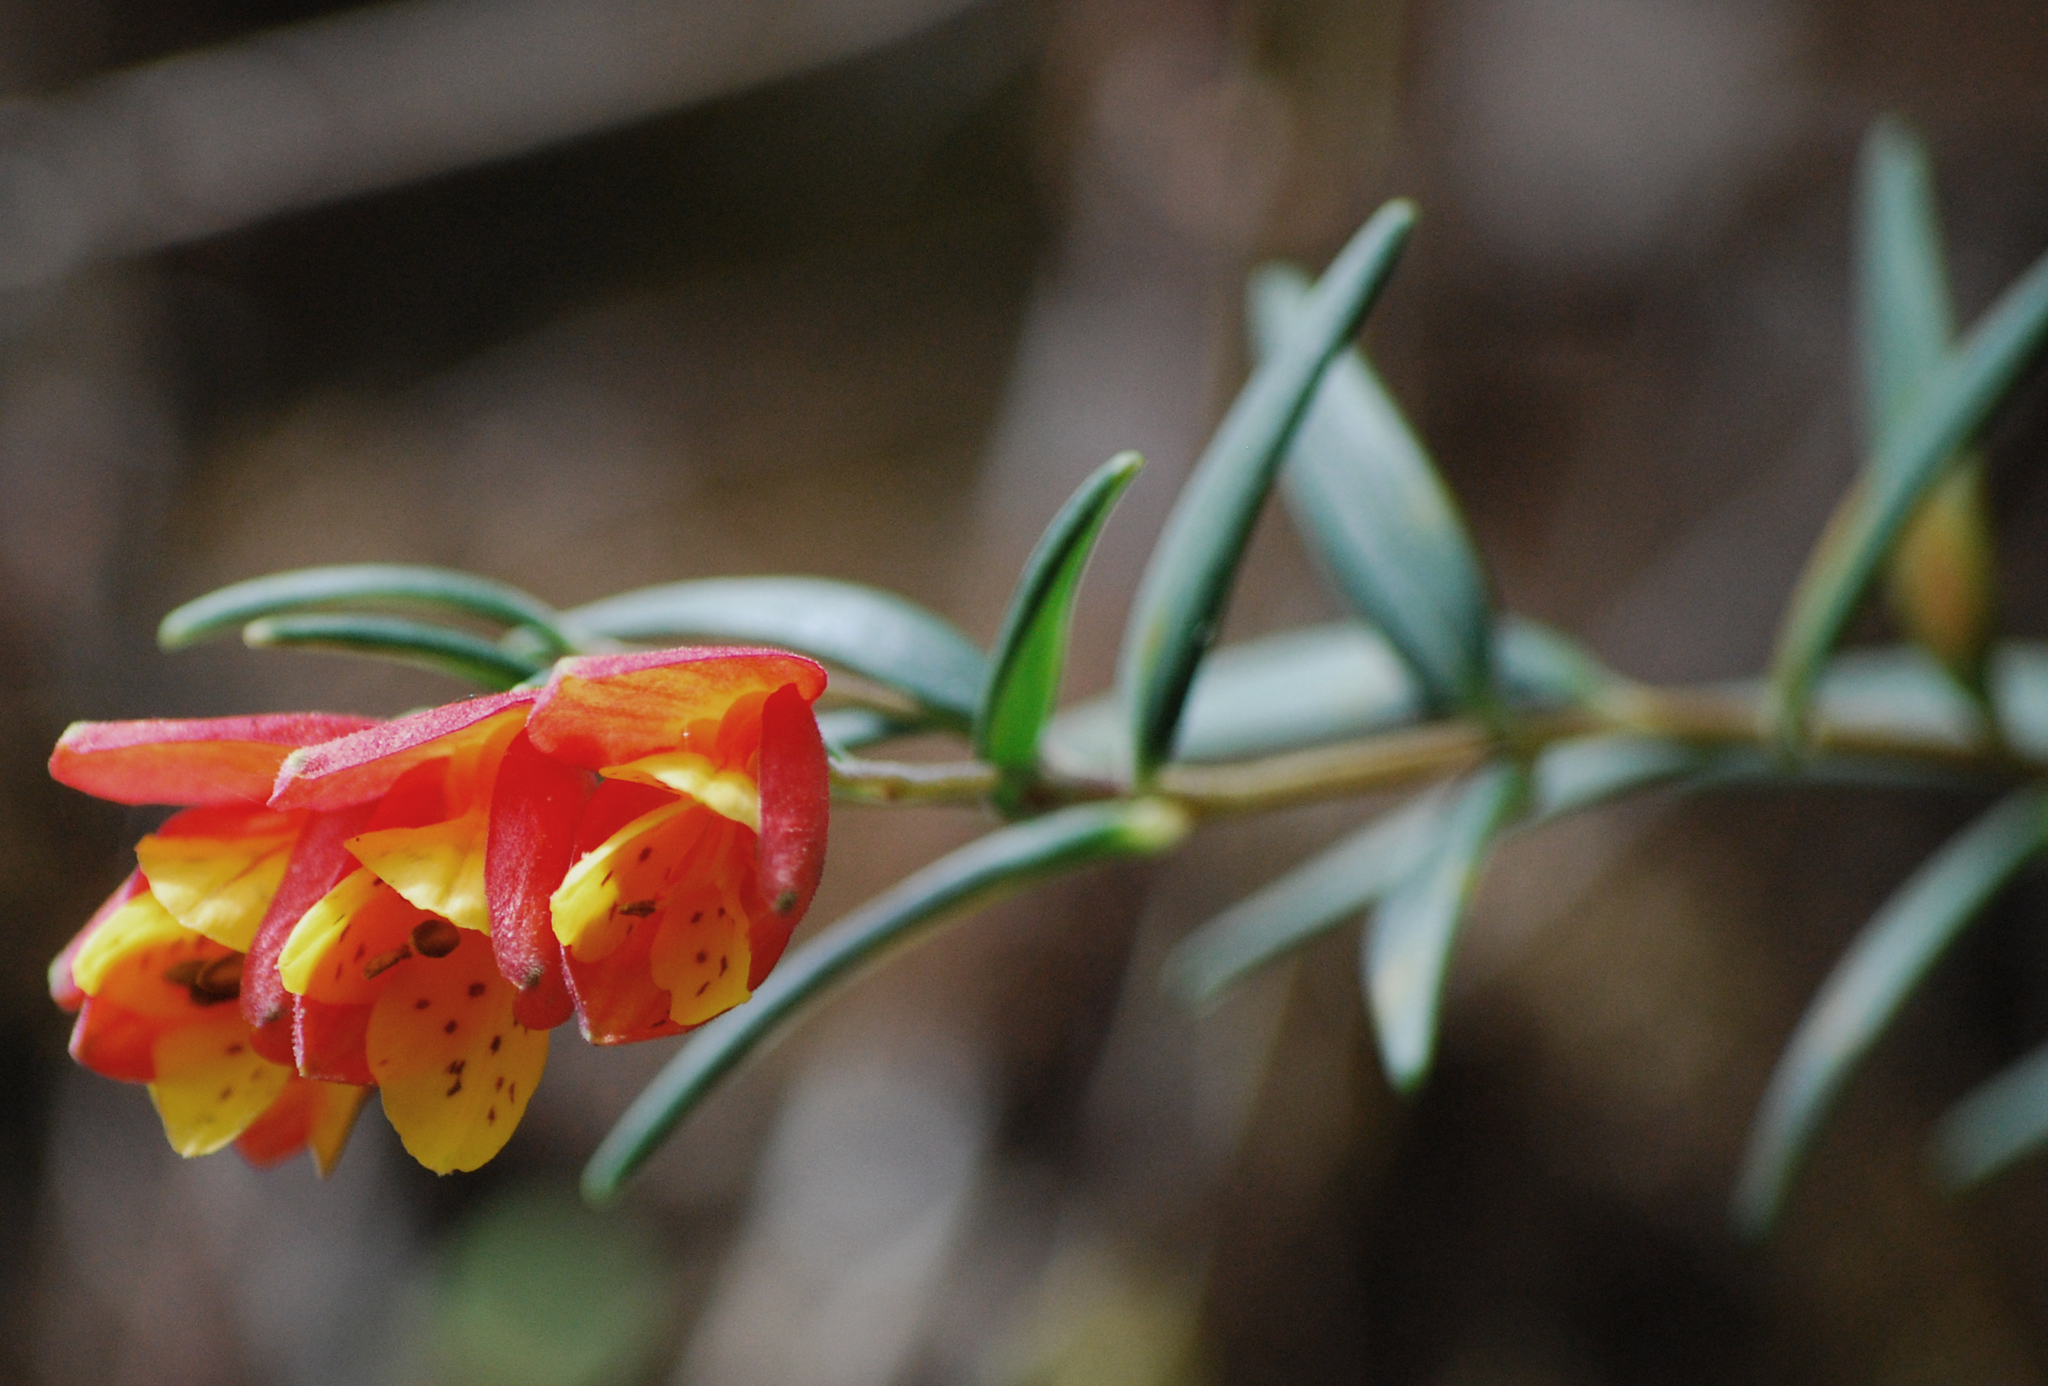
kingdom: Plantae
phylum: Tracheophyta
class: Liliopsida
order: Liliales
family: Alstroemeriaceae
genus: Bomarea
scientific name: Bomarea linifolia
